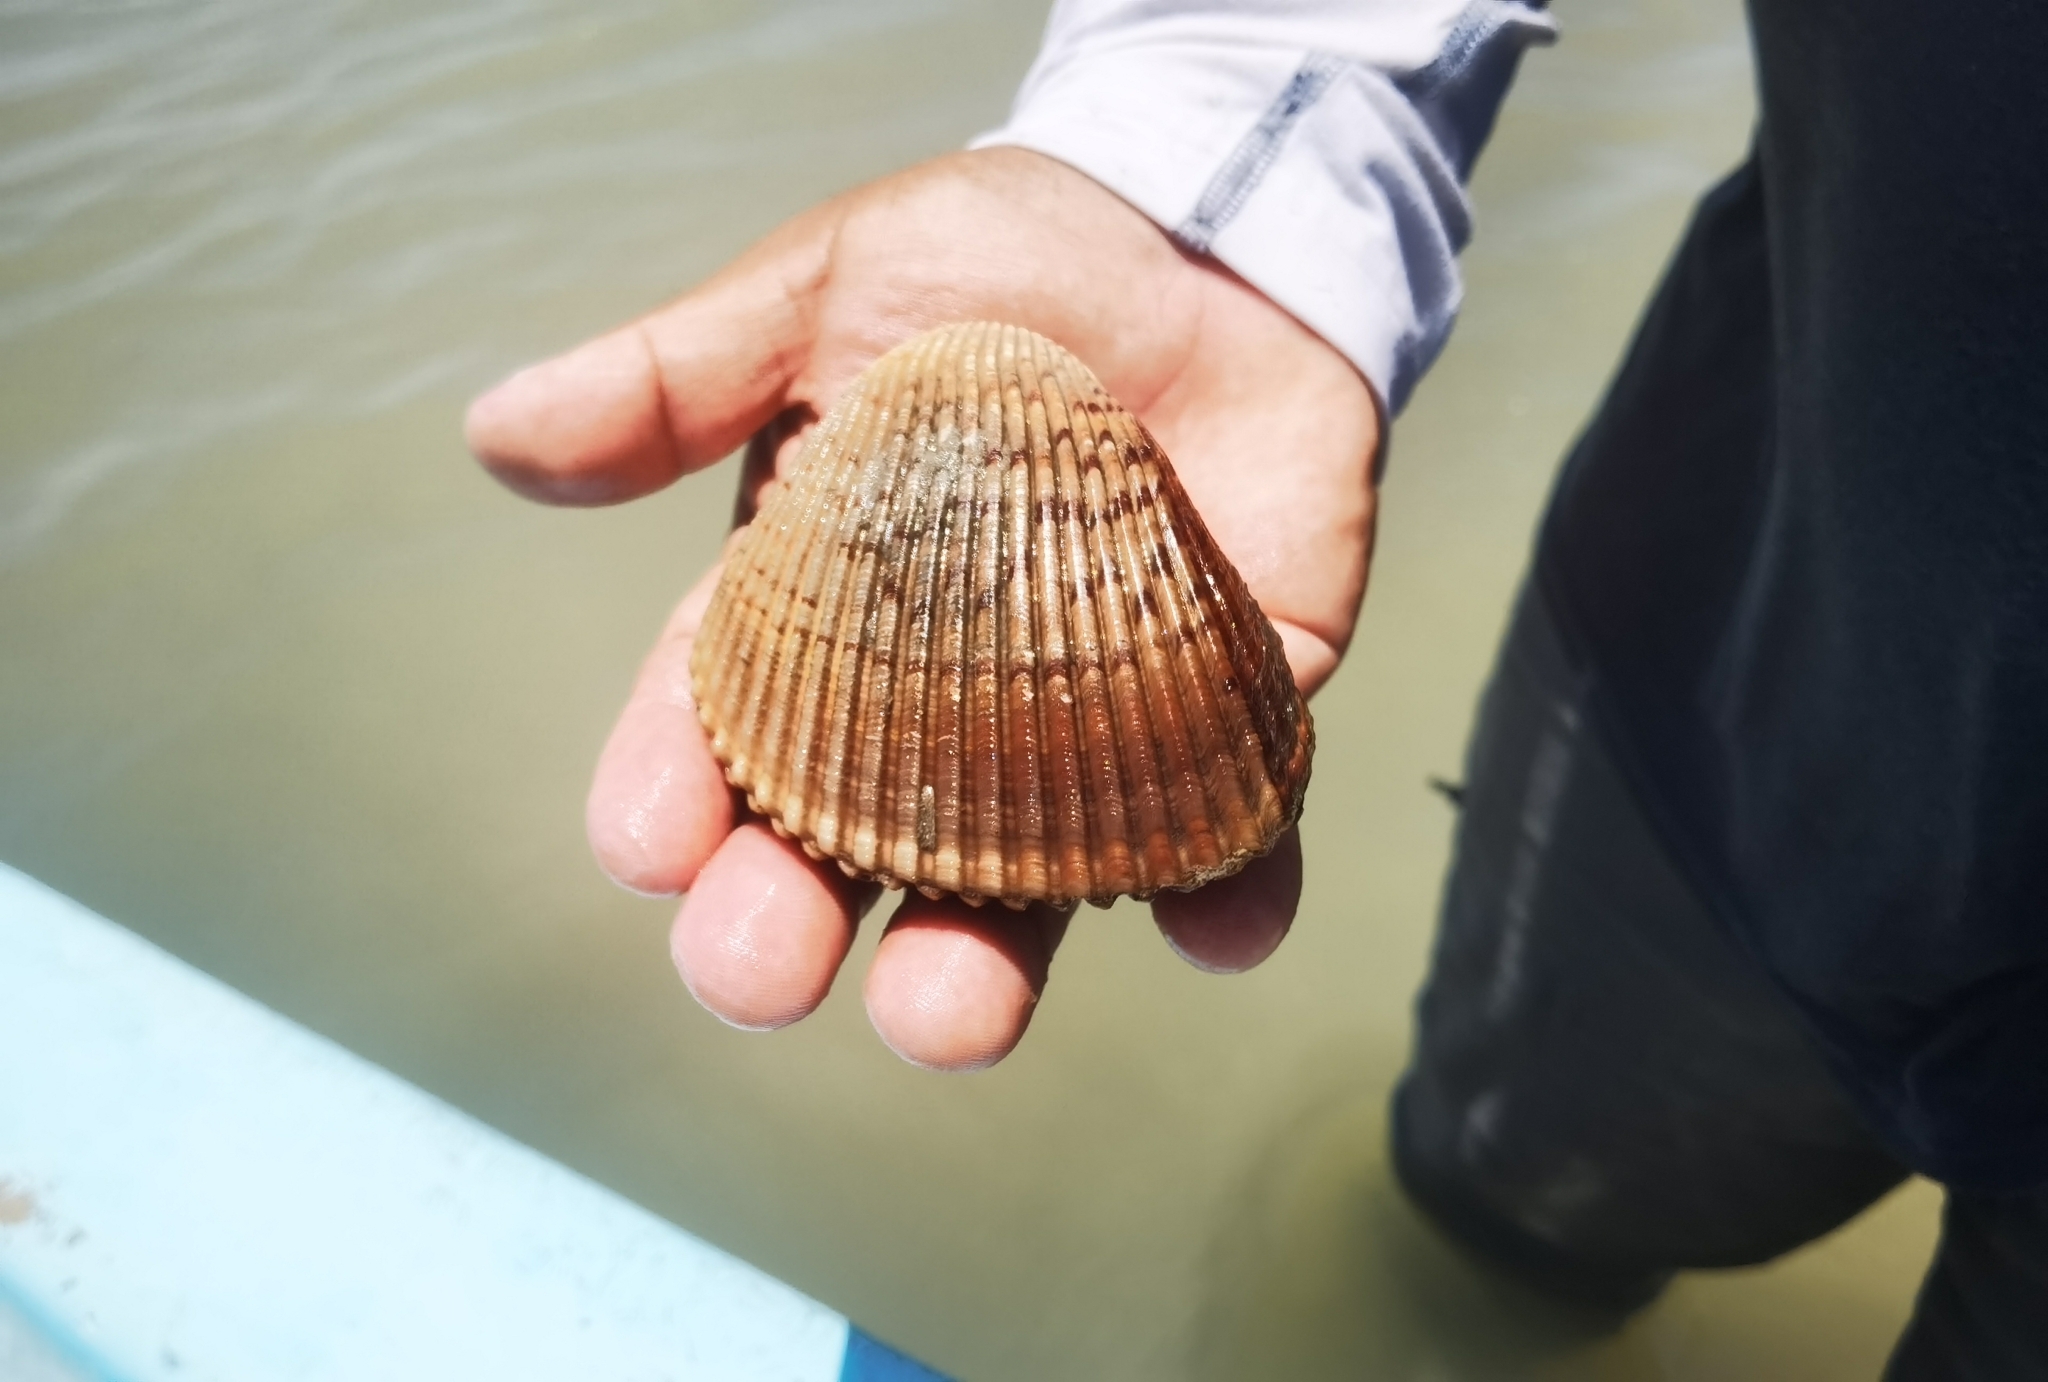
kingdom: Animalia
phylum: Mollusca
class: Bivalvia
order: Cardiida
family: Cardiidae
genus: Dinocardium
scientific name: Dinocardium robustum
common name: Atlantic giant cockle
